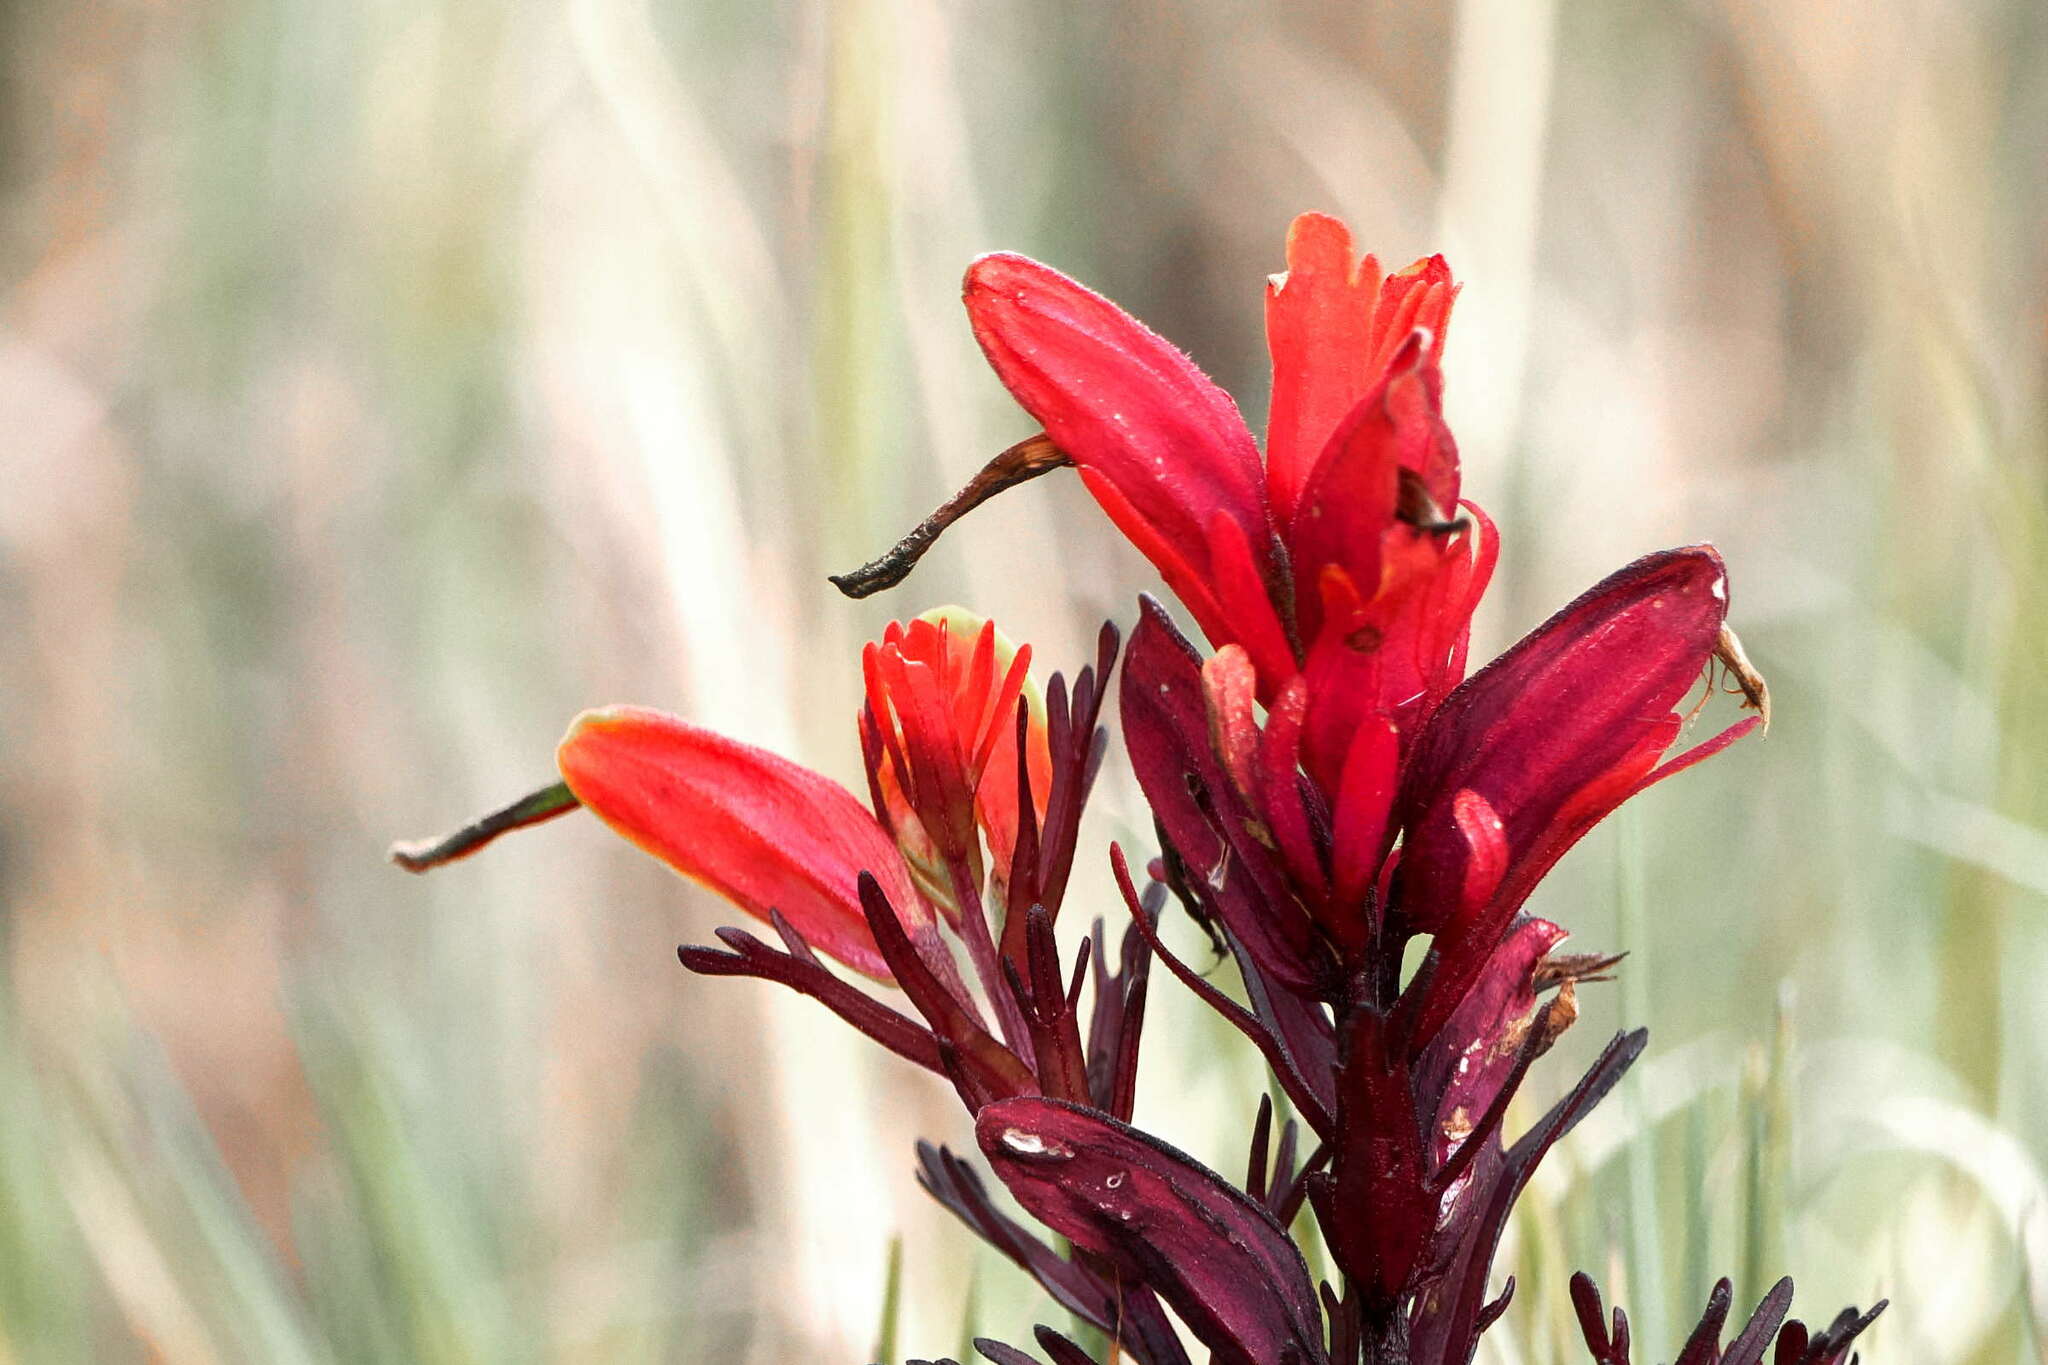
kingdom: Plantae
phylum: Tracheophyta
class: Magnoliopsida
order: Lamiales
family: Orobanchaceae
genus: Castilleja
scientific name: Castilleja talamancensis
